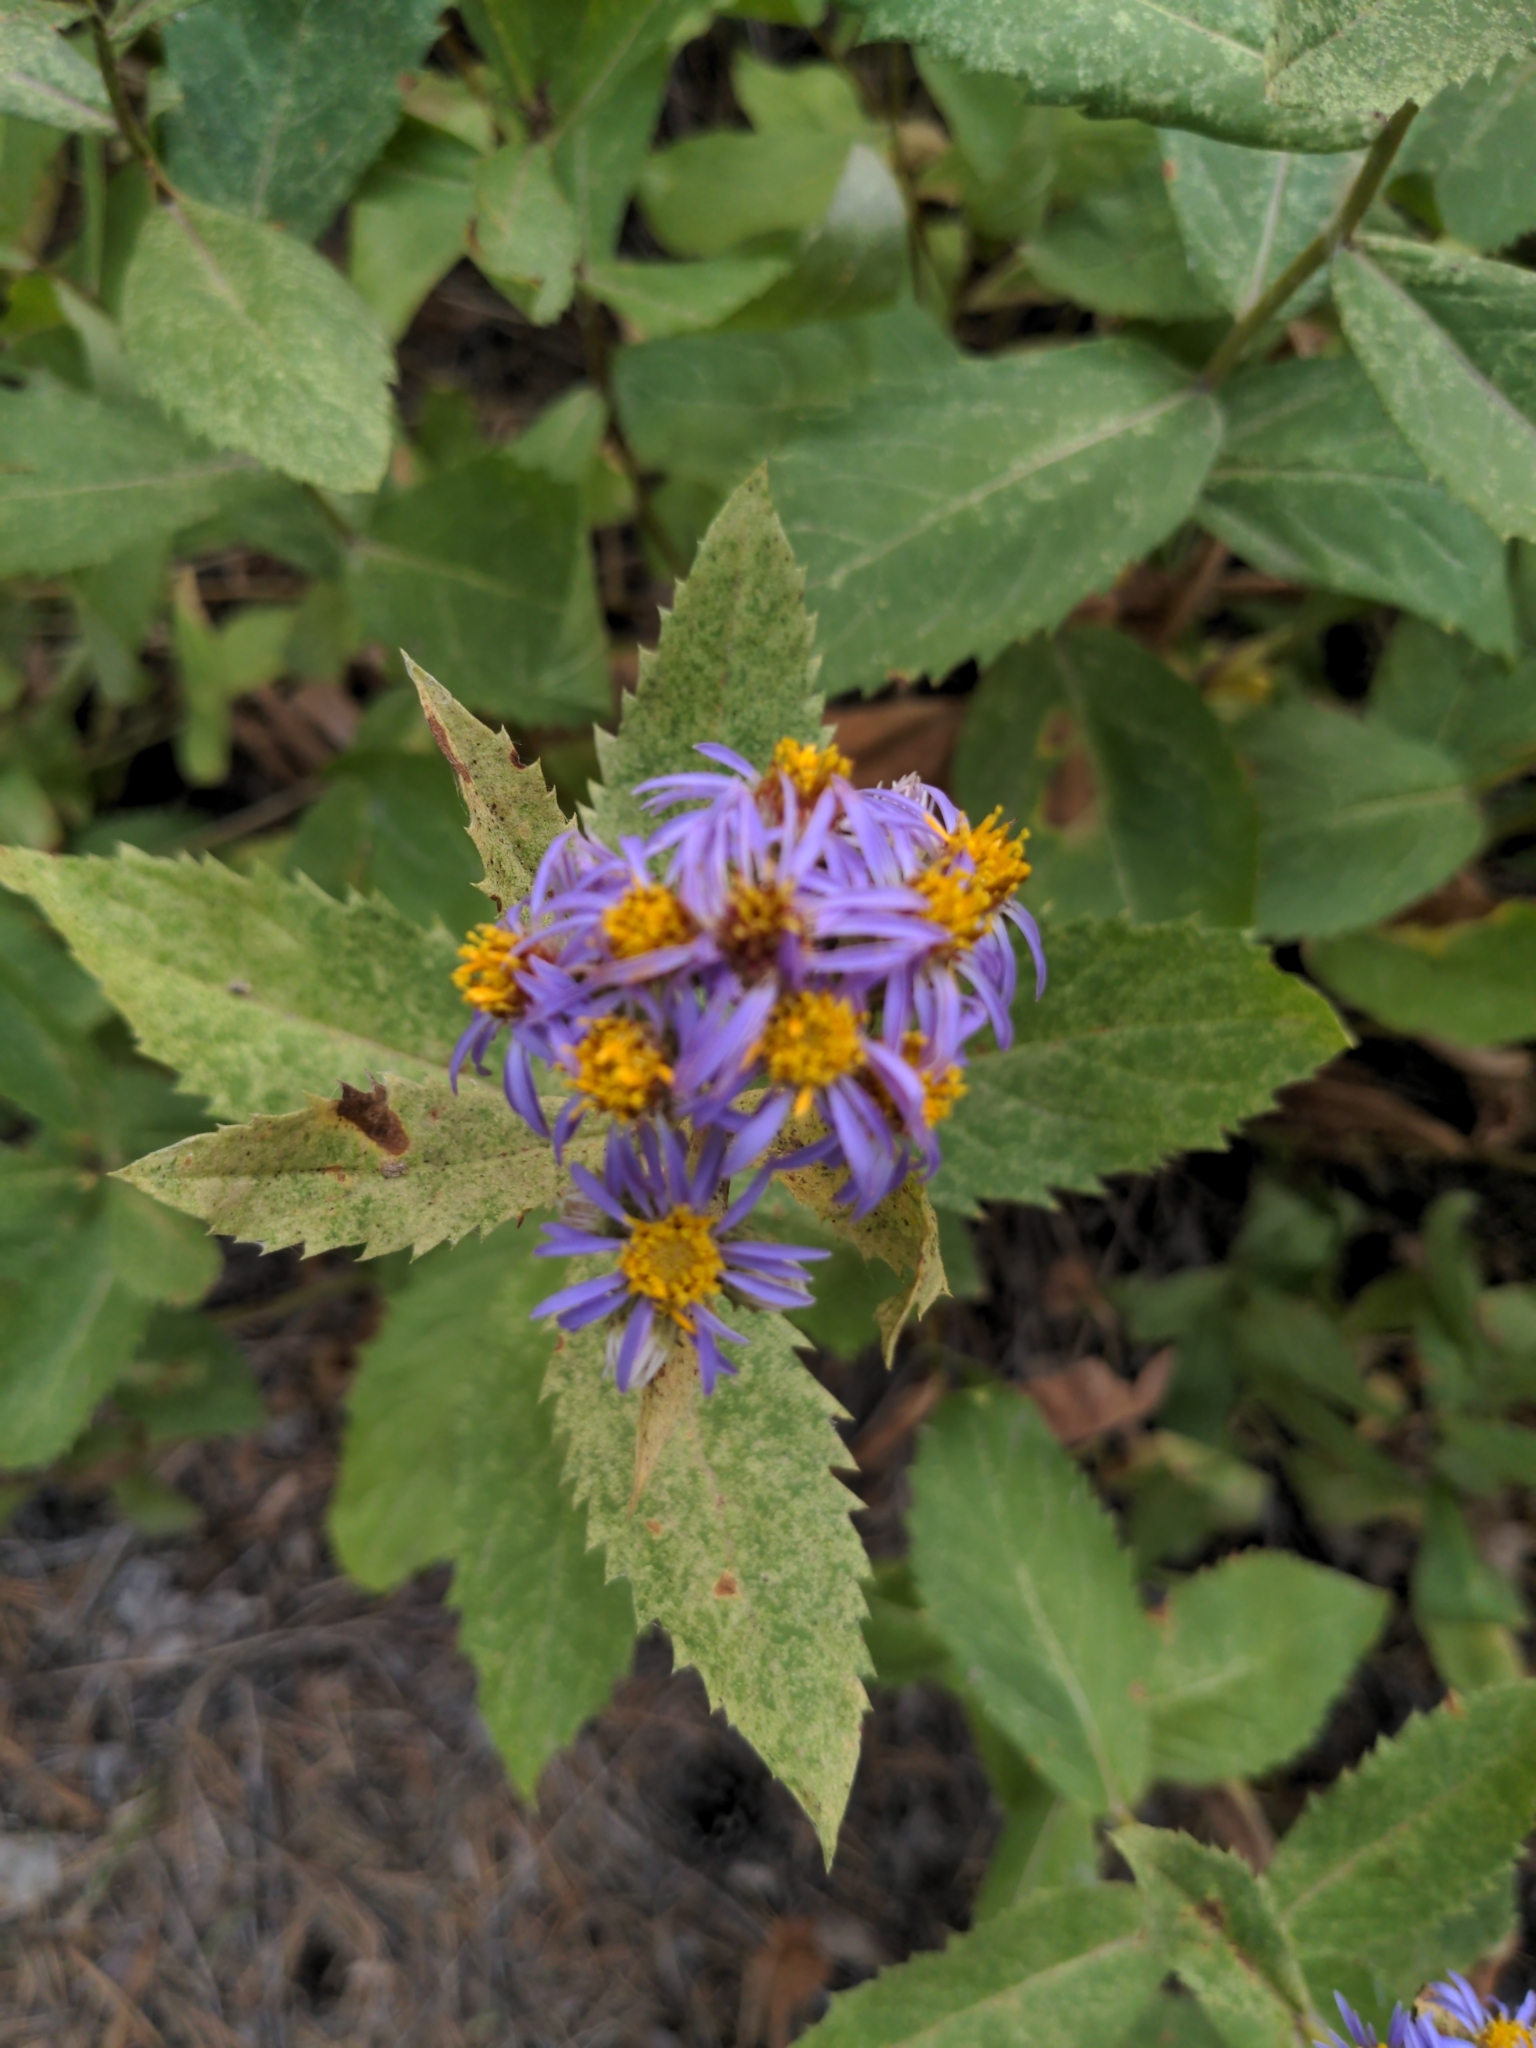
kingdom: Plantae
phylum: Tracheophyta
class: Magnoliopsida
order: Asterales
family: Asteraceae
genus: Eurybia
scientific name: Eurybia conspicua
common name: Showy aster
